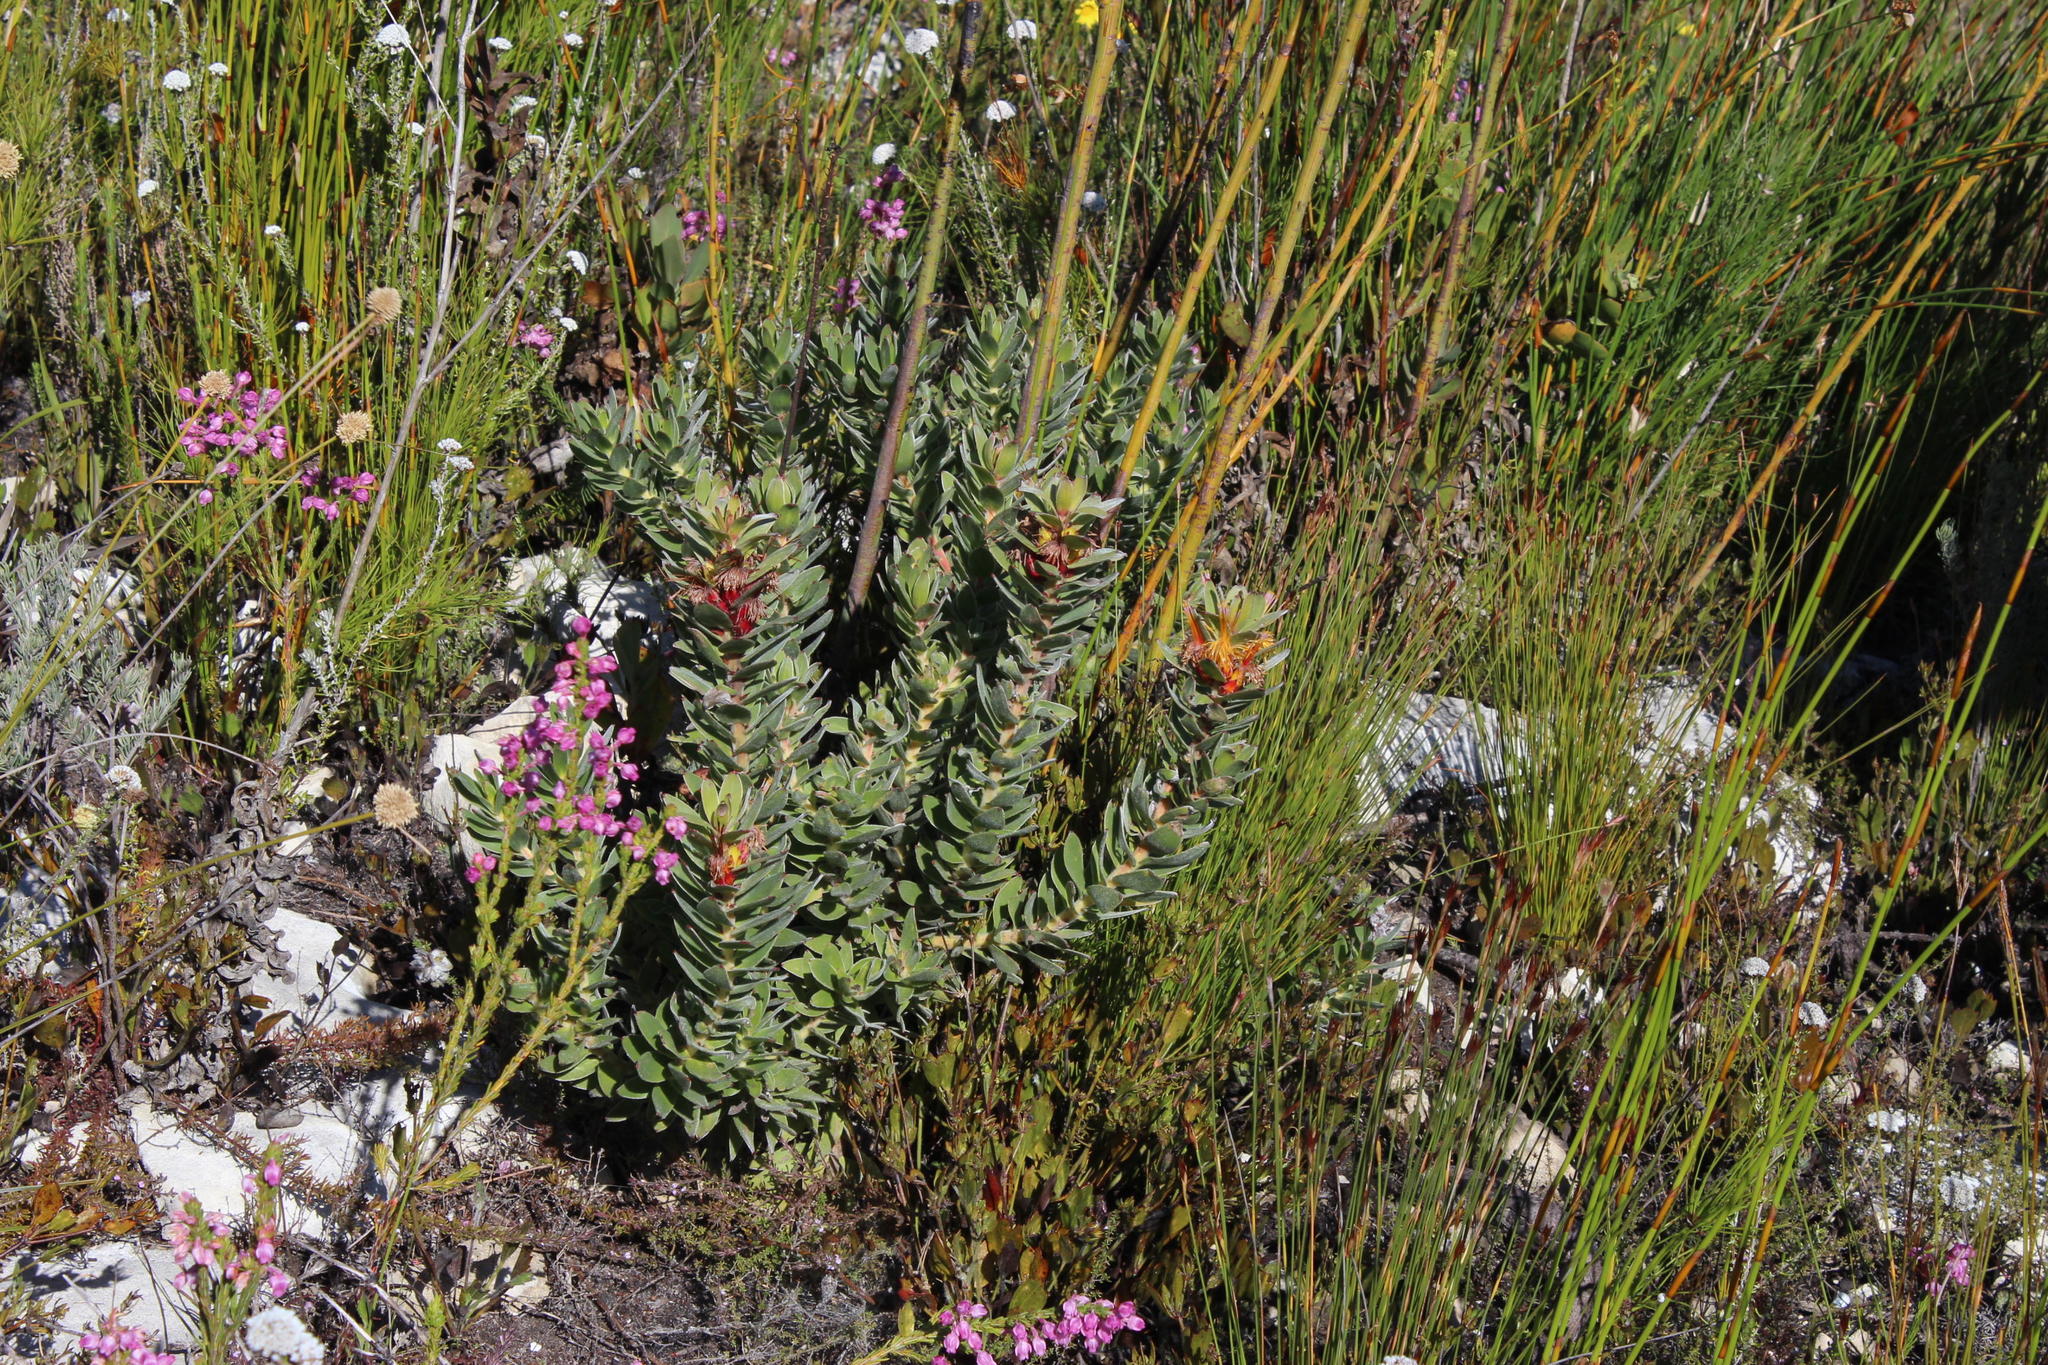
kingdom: Plantae
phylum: Tracheophyta
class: Magnoliopsida
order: Ericales
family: Ericaceae
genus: Erica
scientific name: Erica excavata
